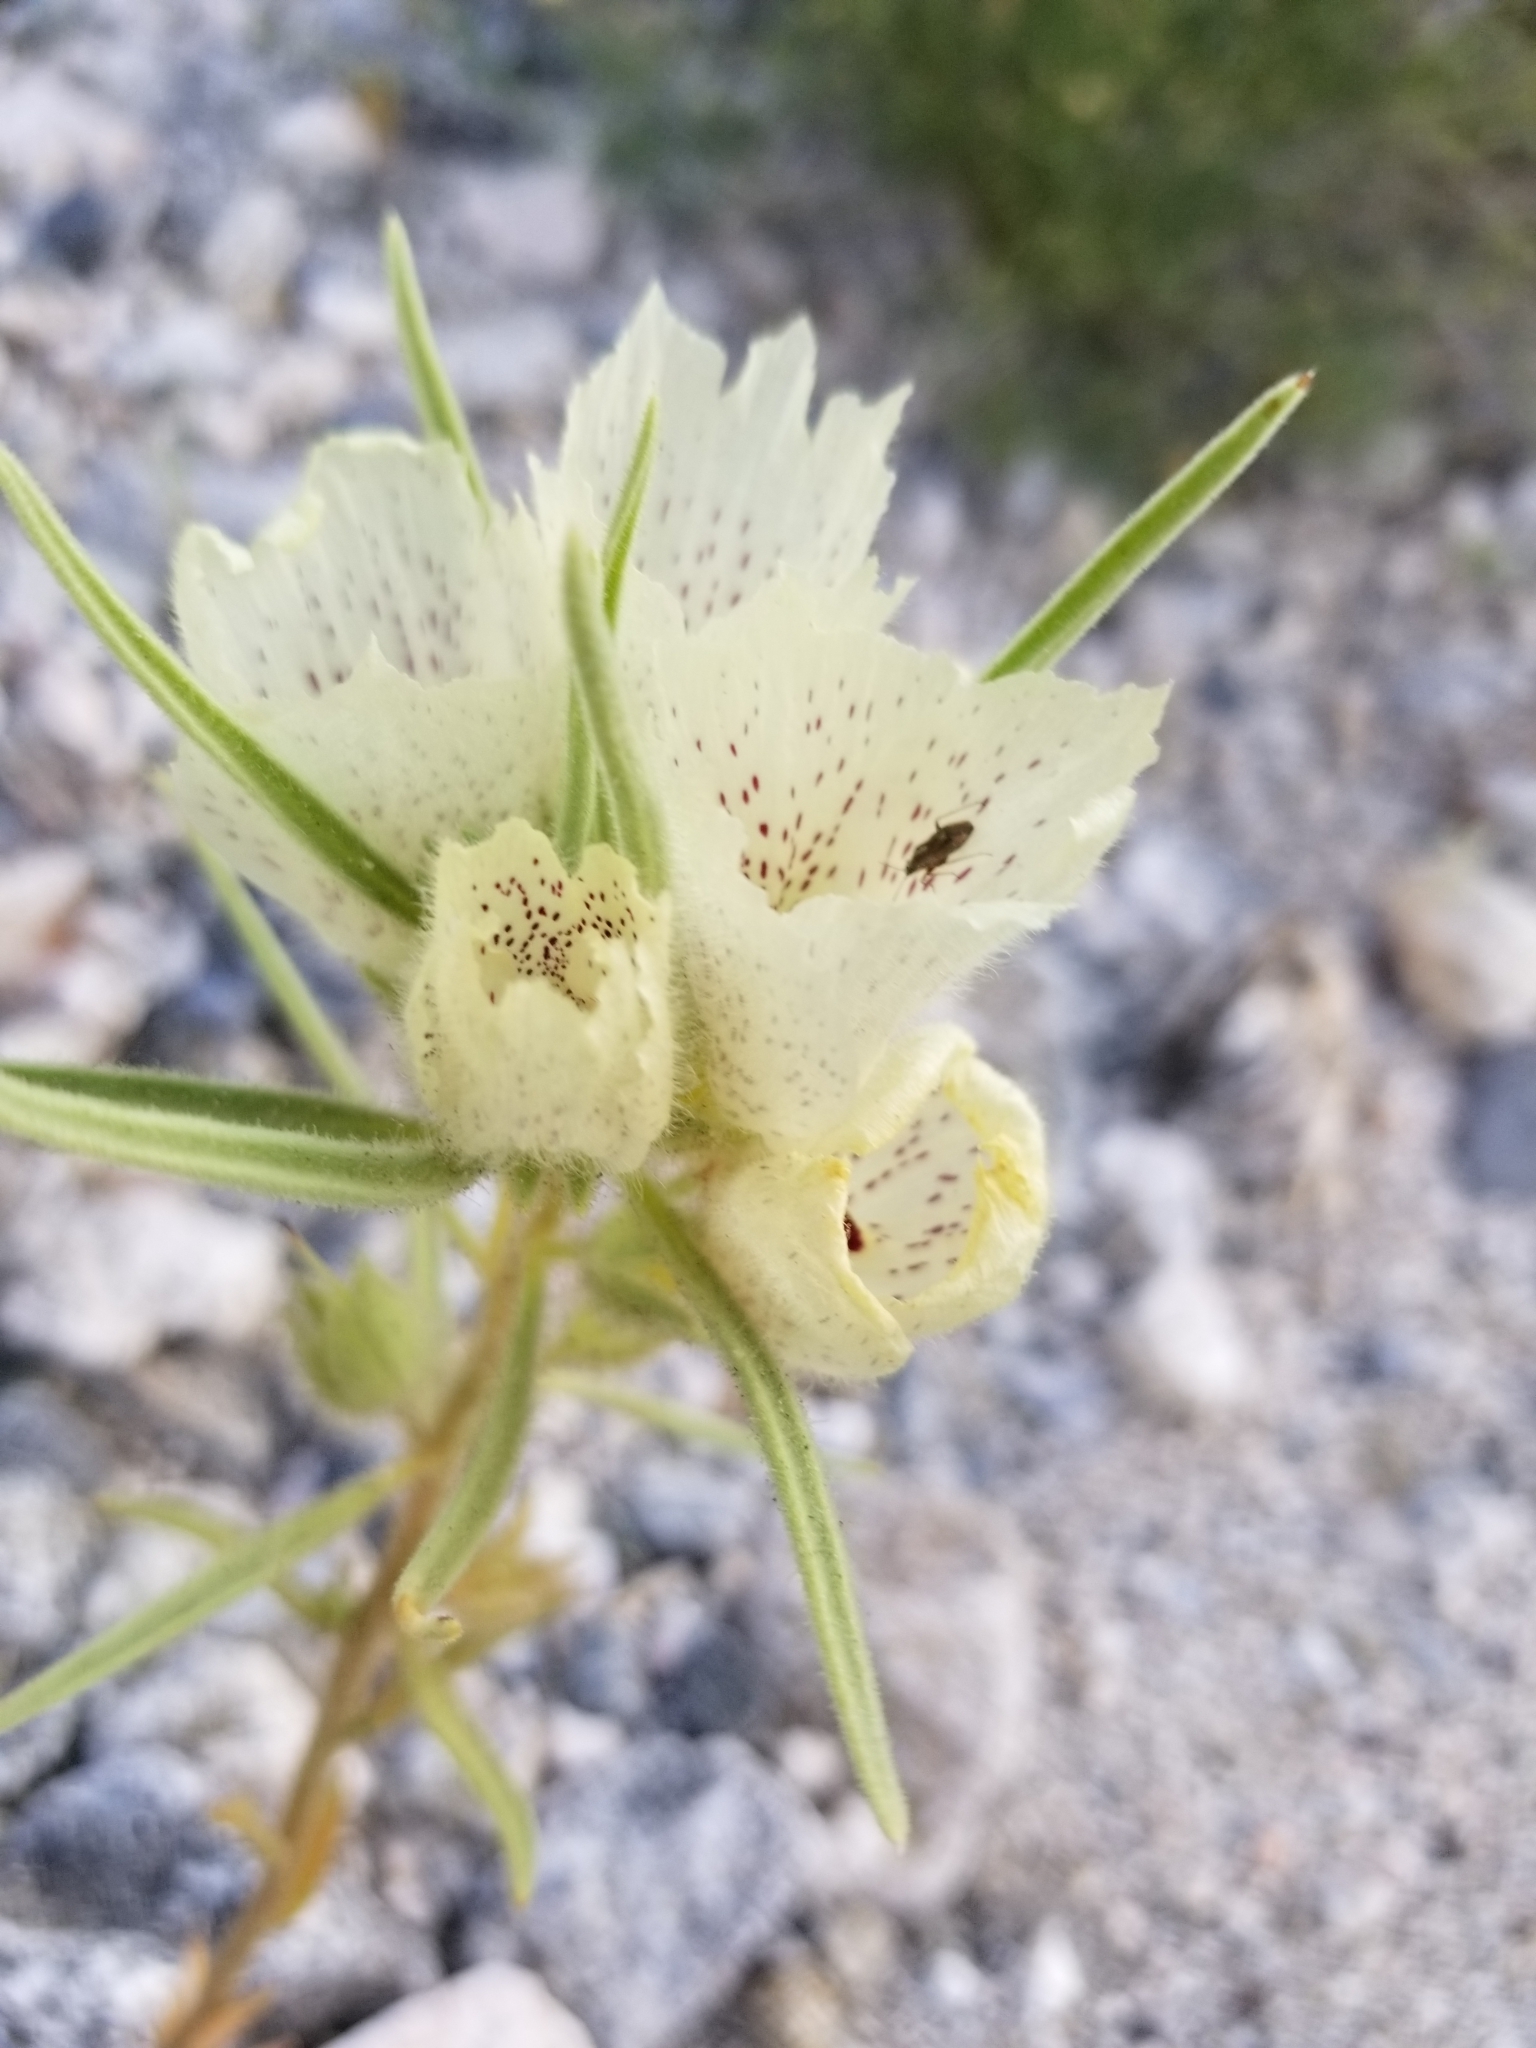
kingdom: Plantae
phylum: Tracheophyta
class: Magnoliopsida
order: Lamiales
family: Plantaginaceae
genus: Mohavea
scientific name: Mohavea confertiflora
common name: Ghost flower
